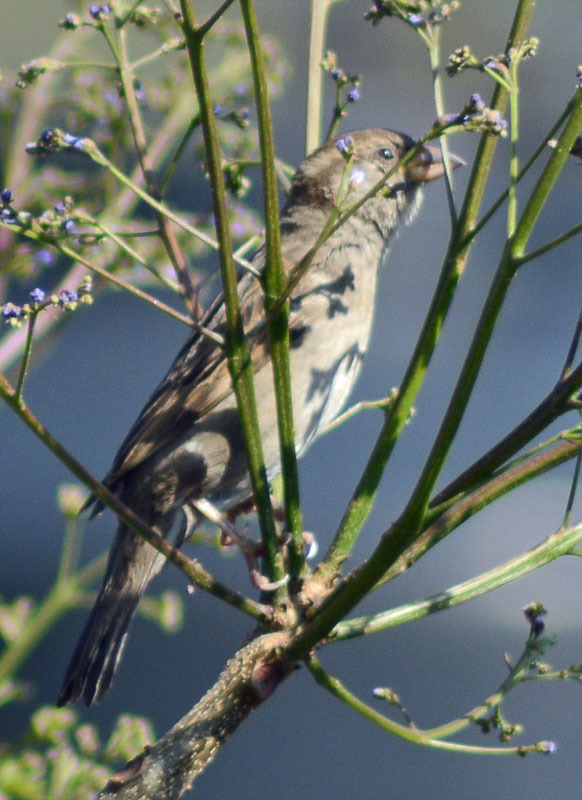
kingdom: Animalia
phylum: Chordata
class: Aves
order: Passeriformes
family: Passeridae
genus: Passer
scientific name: Passer domesticus
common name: House sparrow
